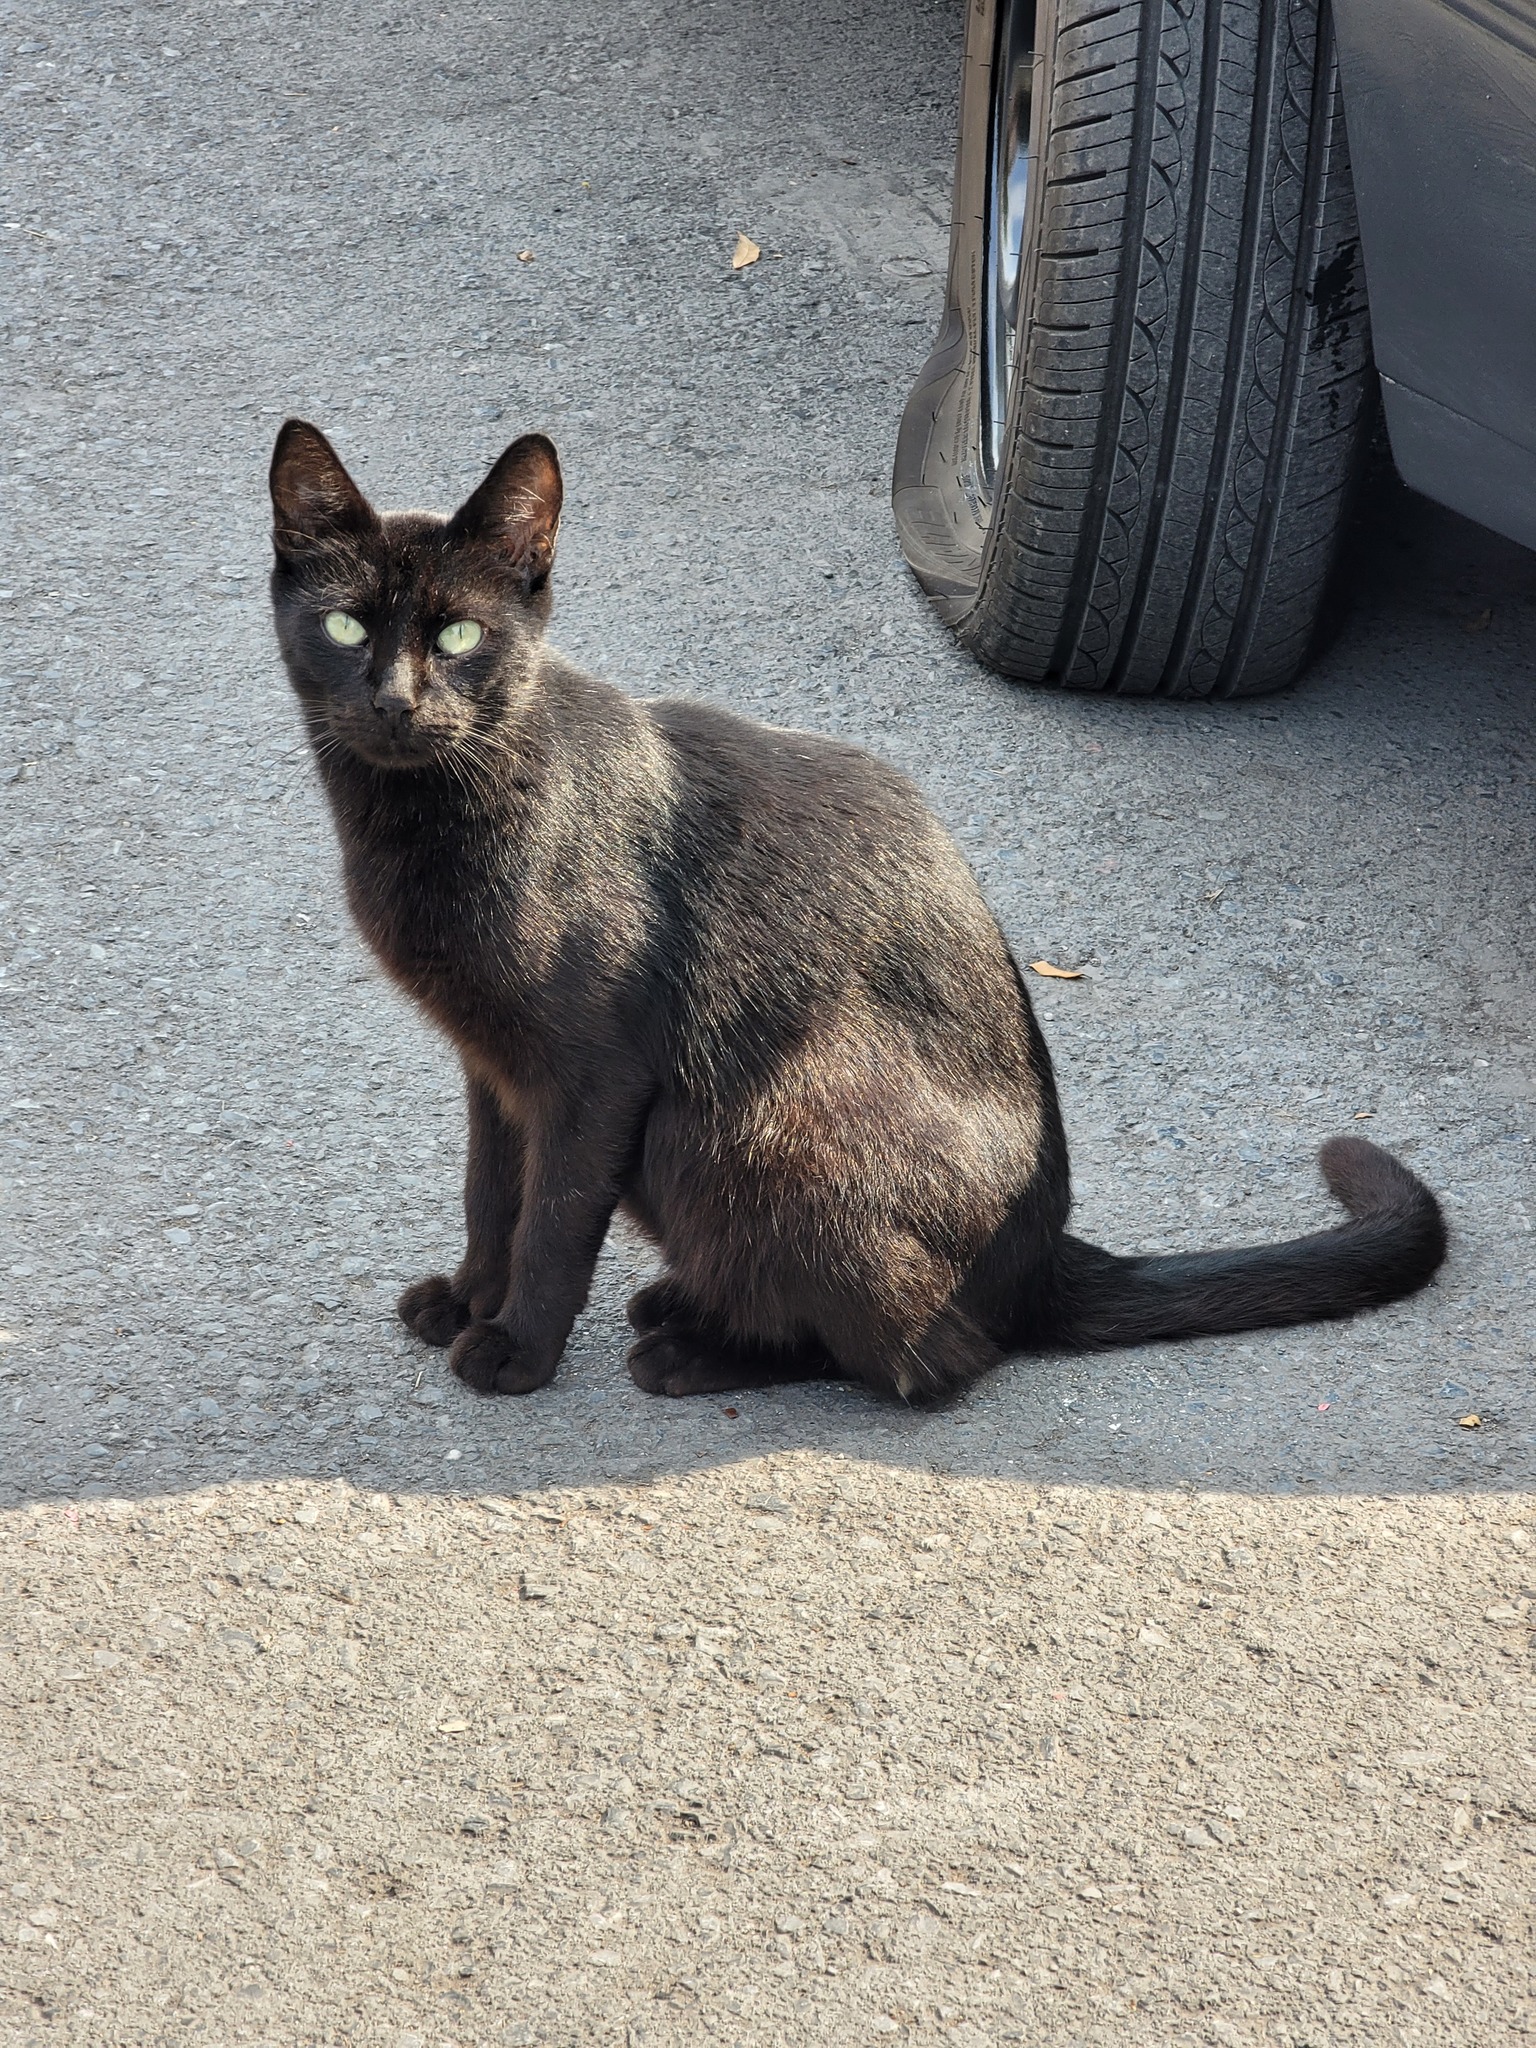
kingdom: Animalia
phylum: Chordata
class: Mammalia
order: Carnivora
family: Felidae
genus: Felis
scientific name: Felis catus
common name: Domestic cat
